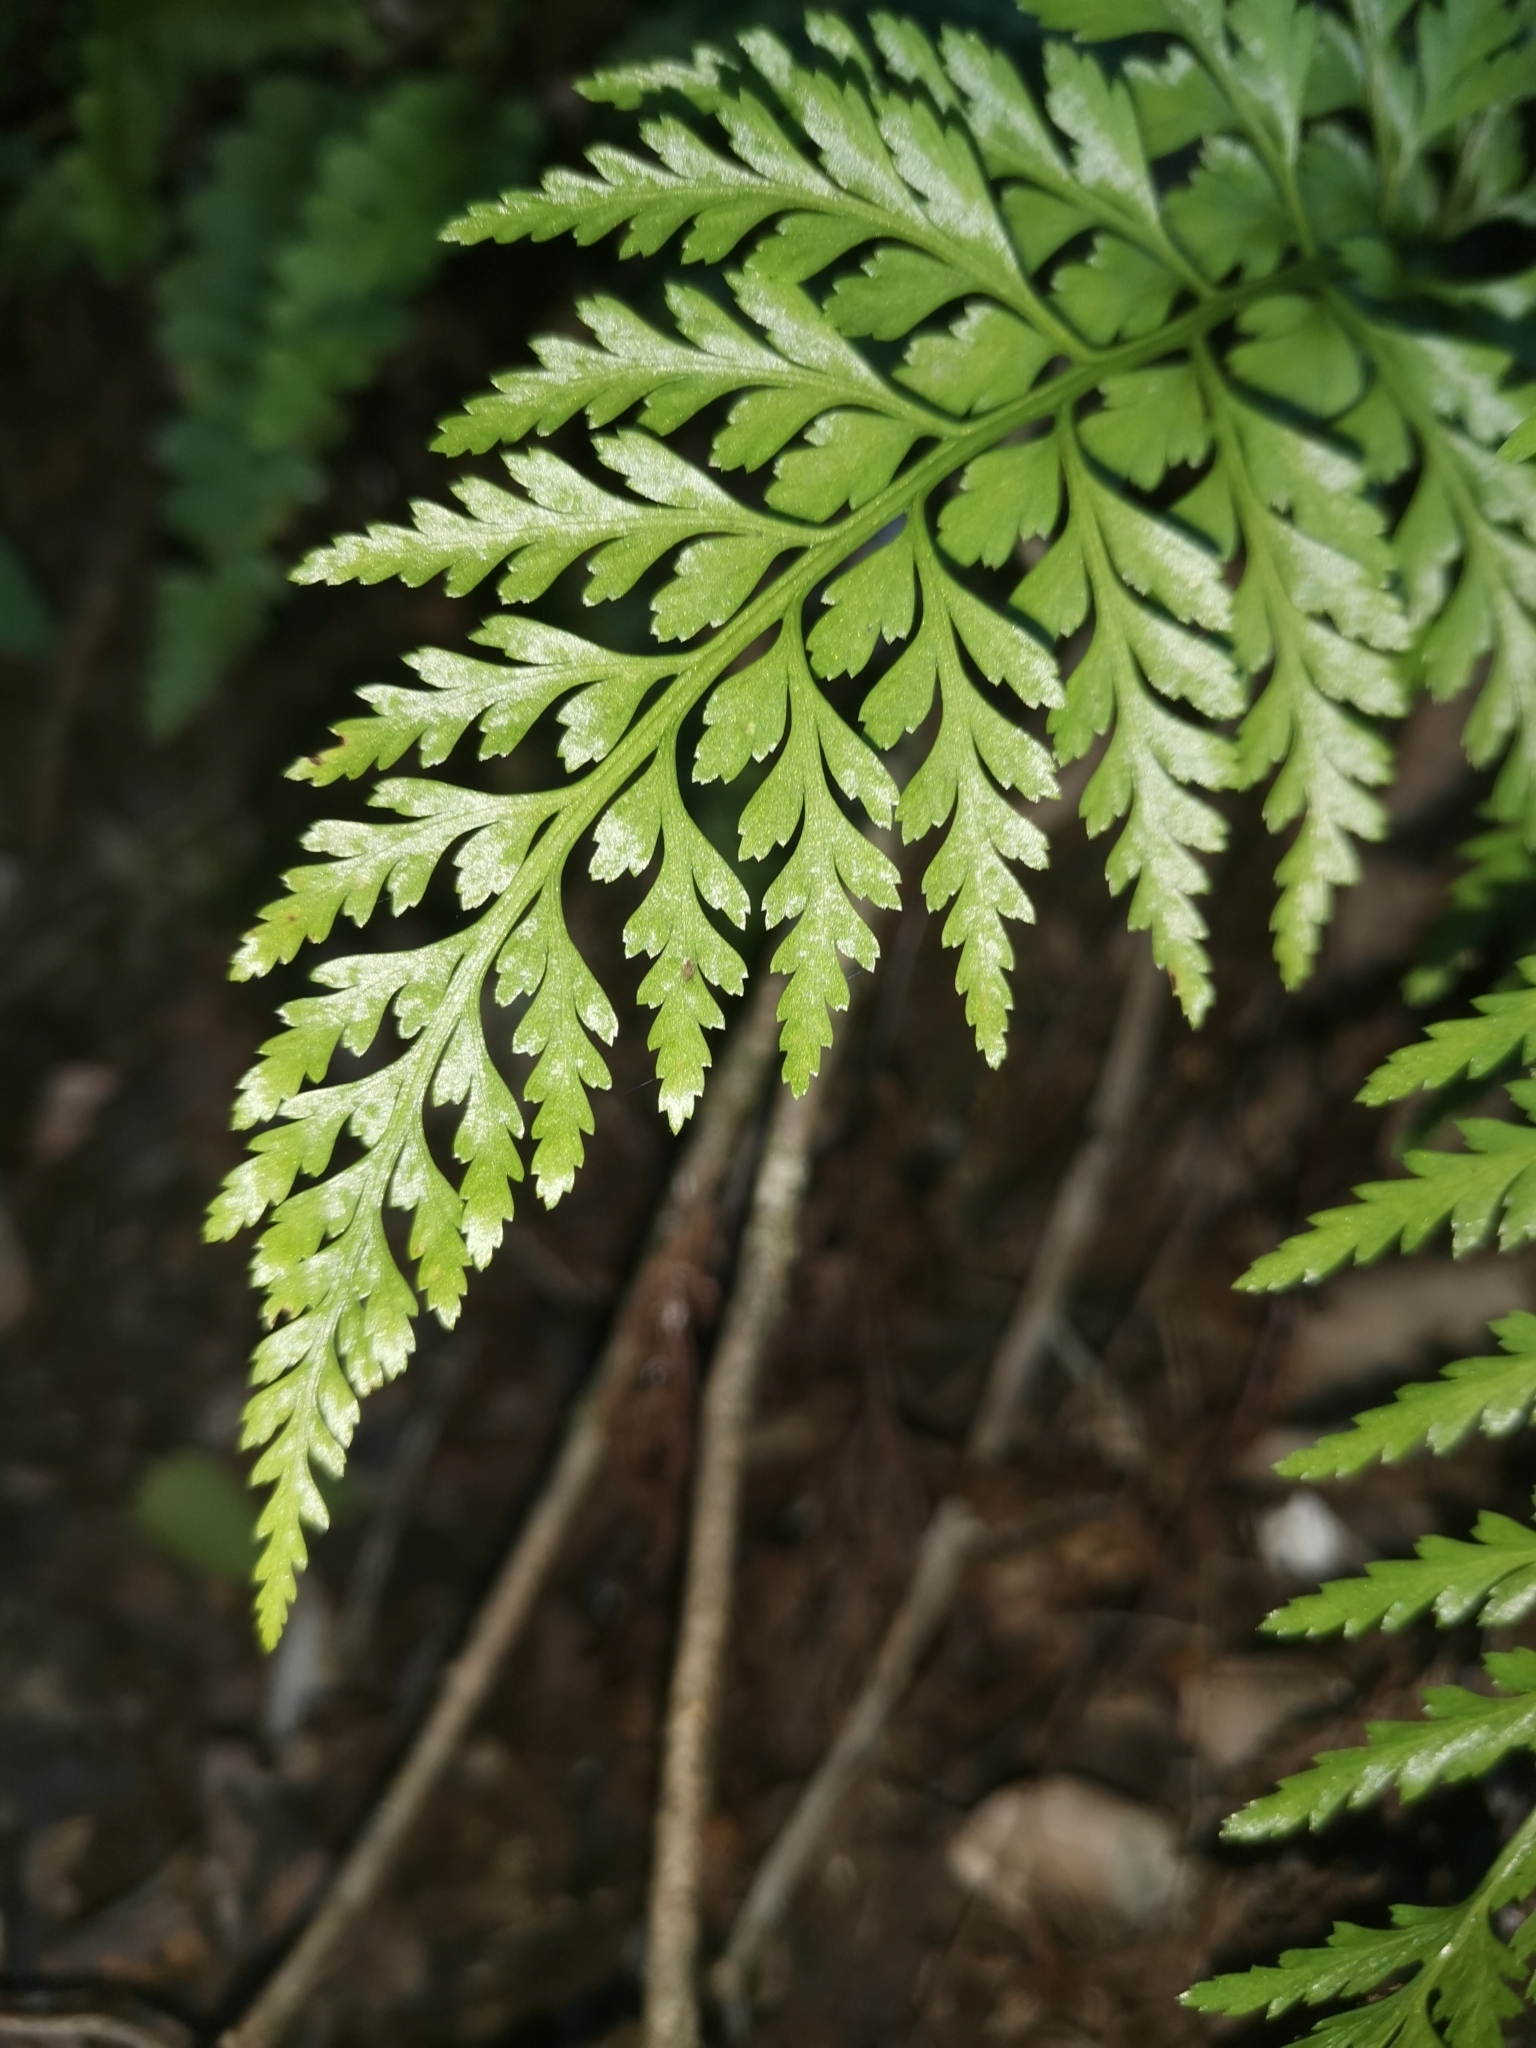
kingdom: Plantae
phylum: Tracheophyta
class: Polypodiopsida
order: Polypodiales
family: Aspleniaceae
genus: Asplenium
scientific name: Asplenium onopteris
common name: Irish spleenwort
